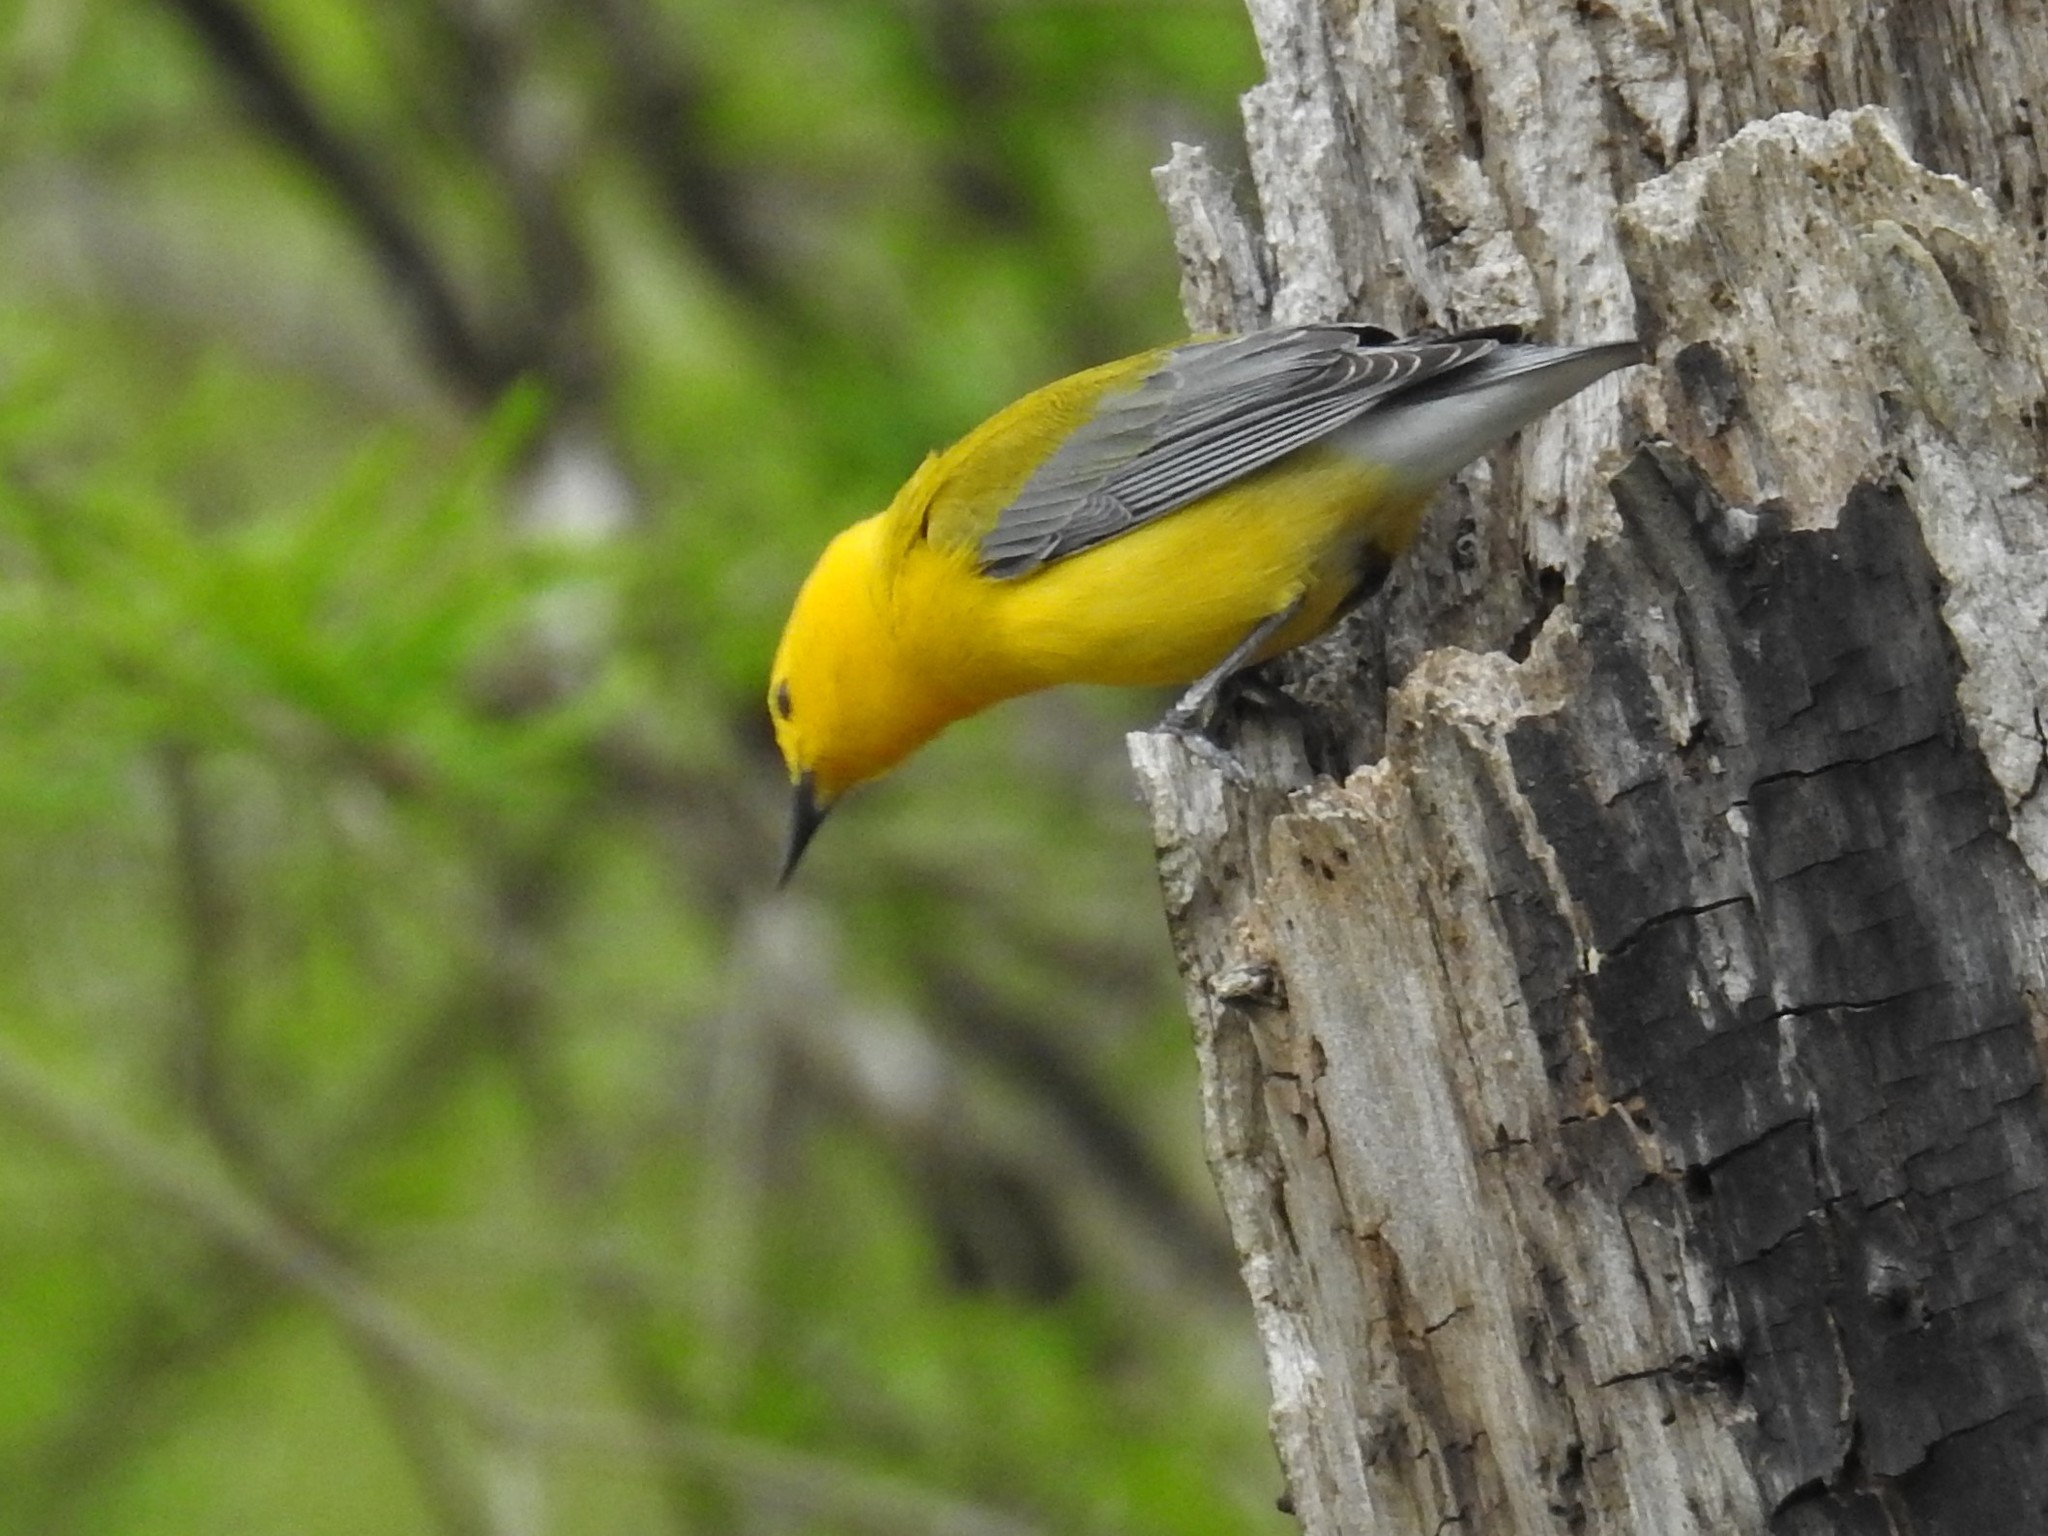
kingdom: Animalia
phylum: Chordata
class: Aves
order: Passeriformes
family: Parulidae
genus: Protonotaria
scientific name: Protonotaria citrea
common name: Prothonotary warbler
